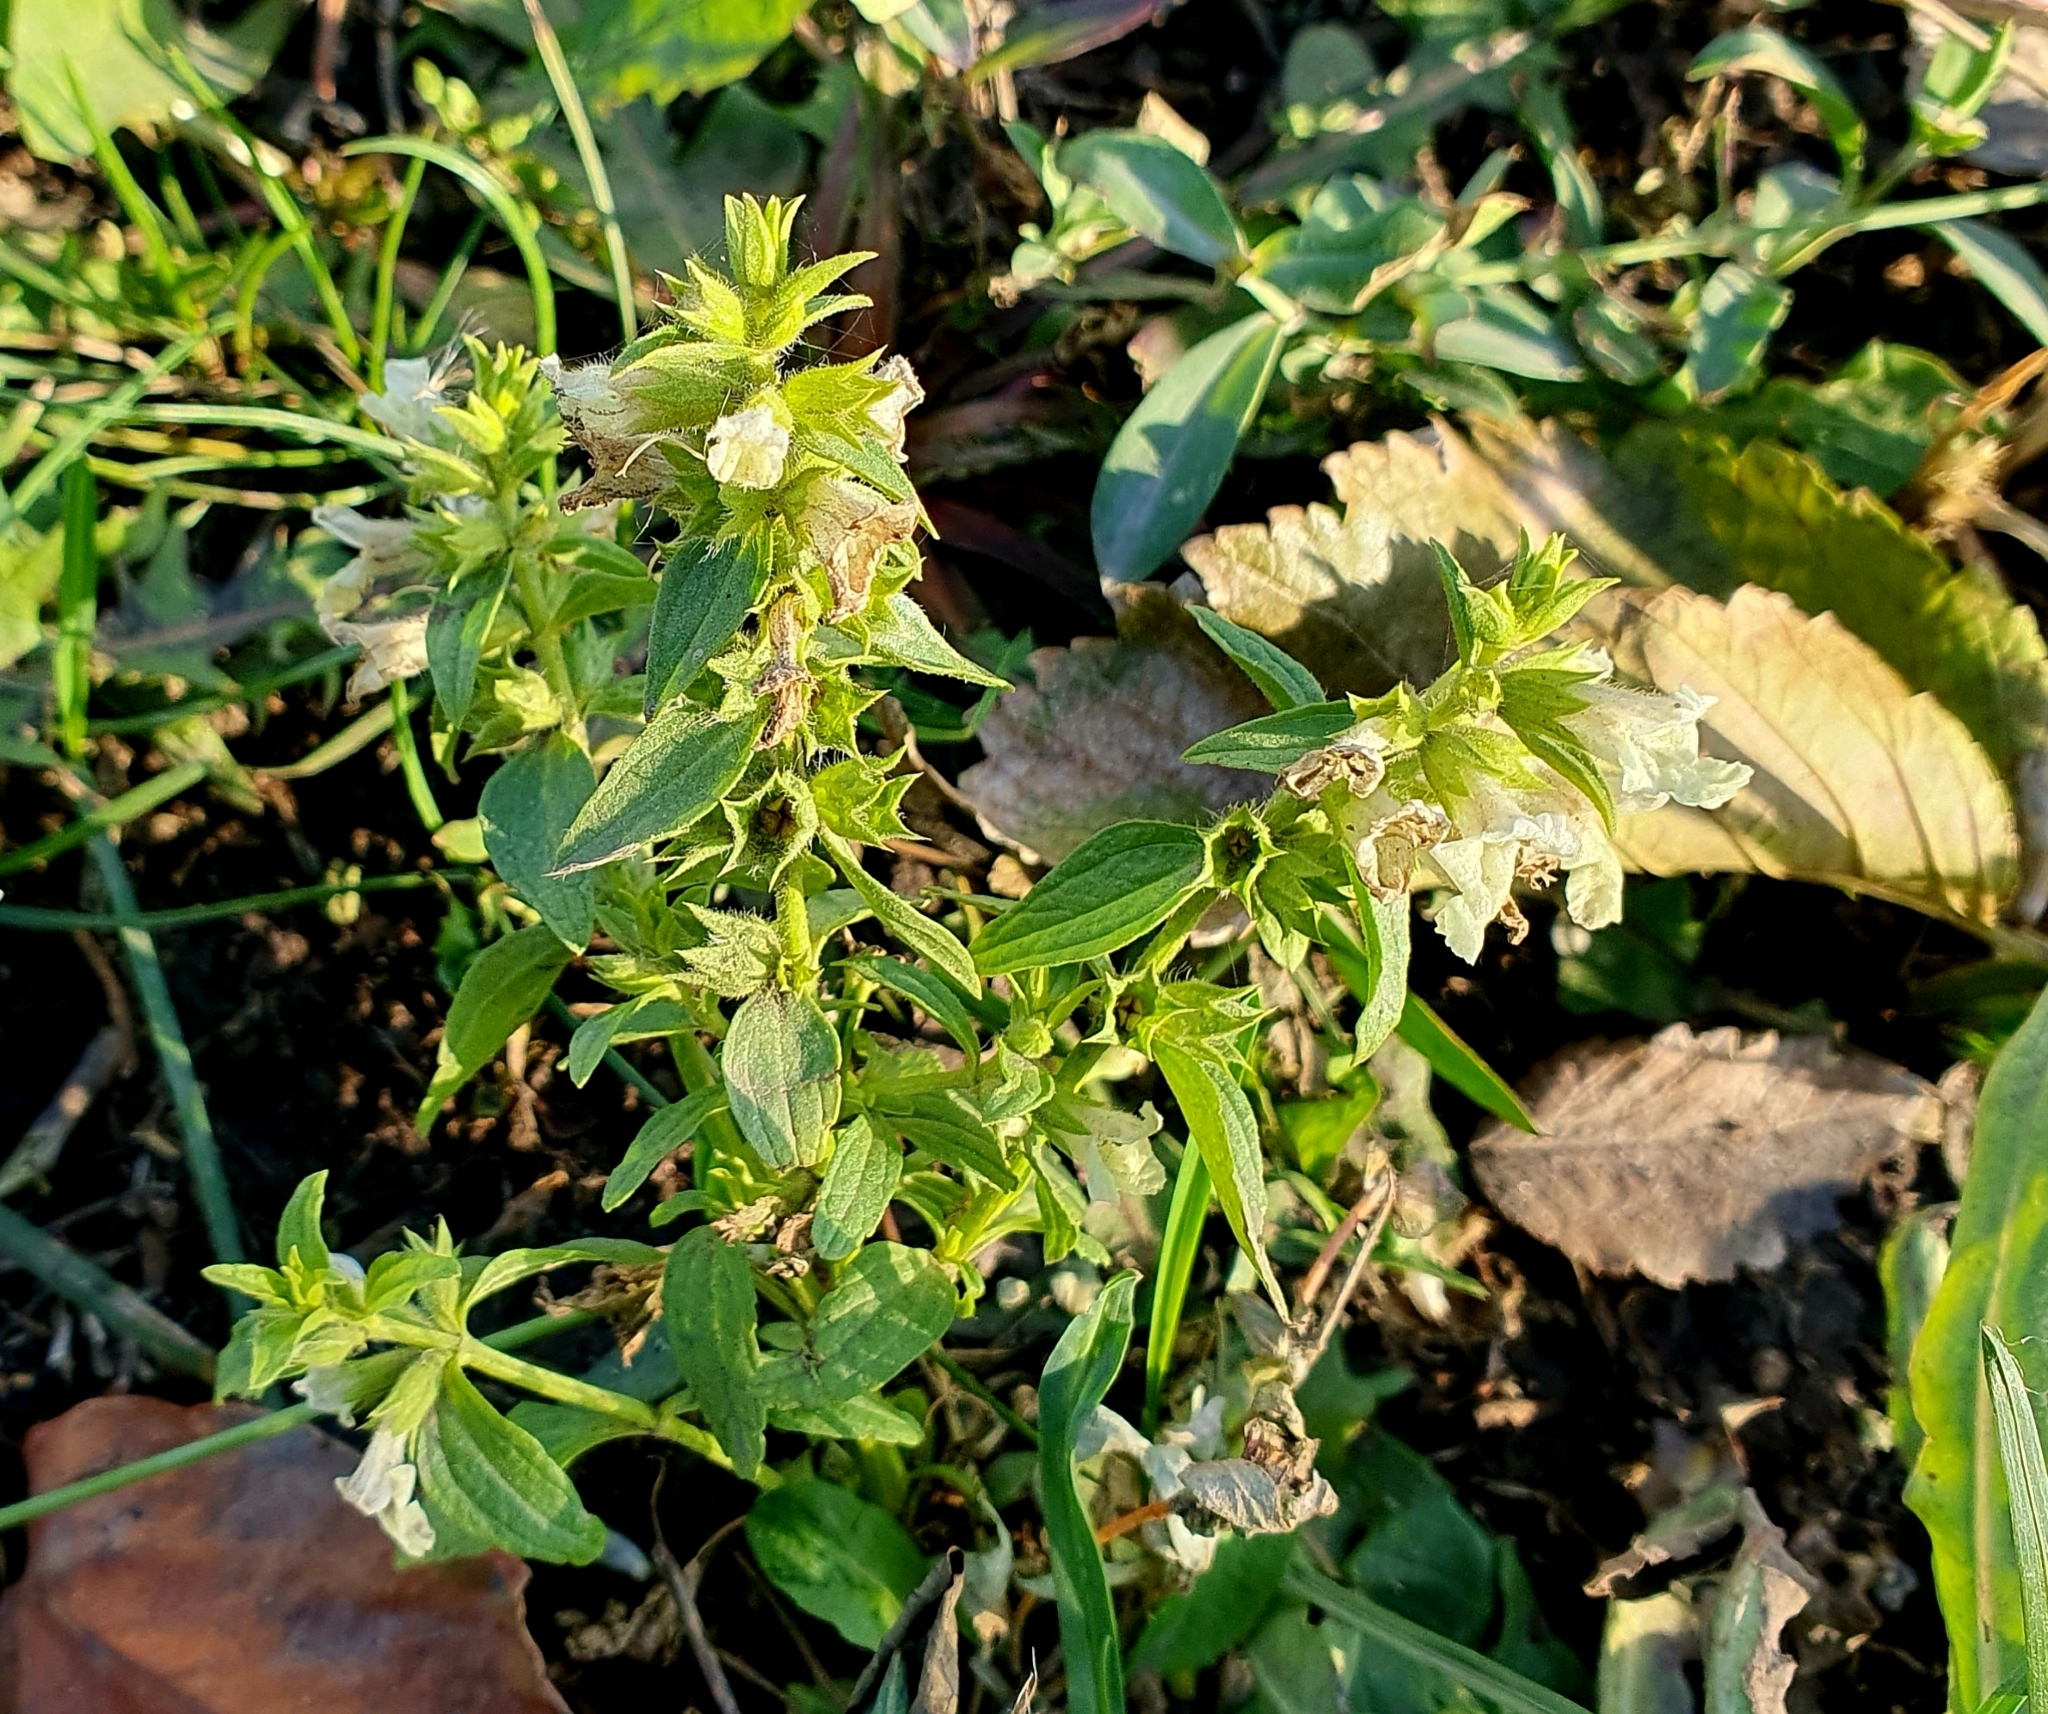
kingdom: Plantae
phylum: Tracheophyta
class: Magnoliopsida
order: Lamiales
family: Lamiaceae
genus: Stachys
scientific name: Stachys annua
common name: Annual yellow-woundwort
